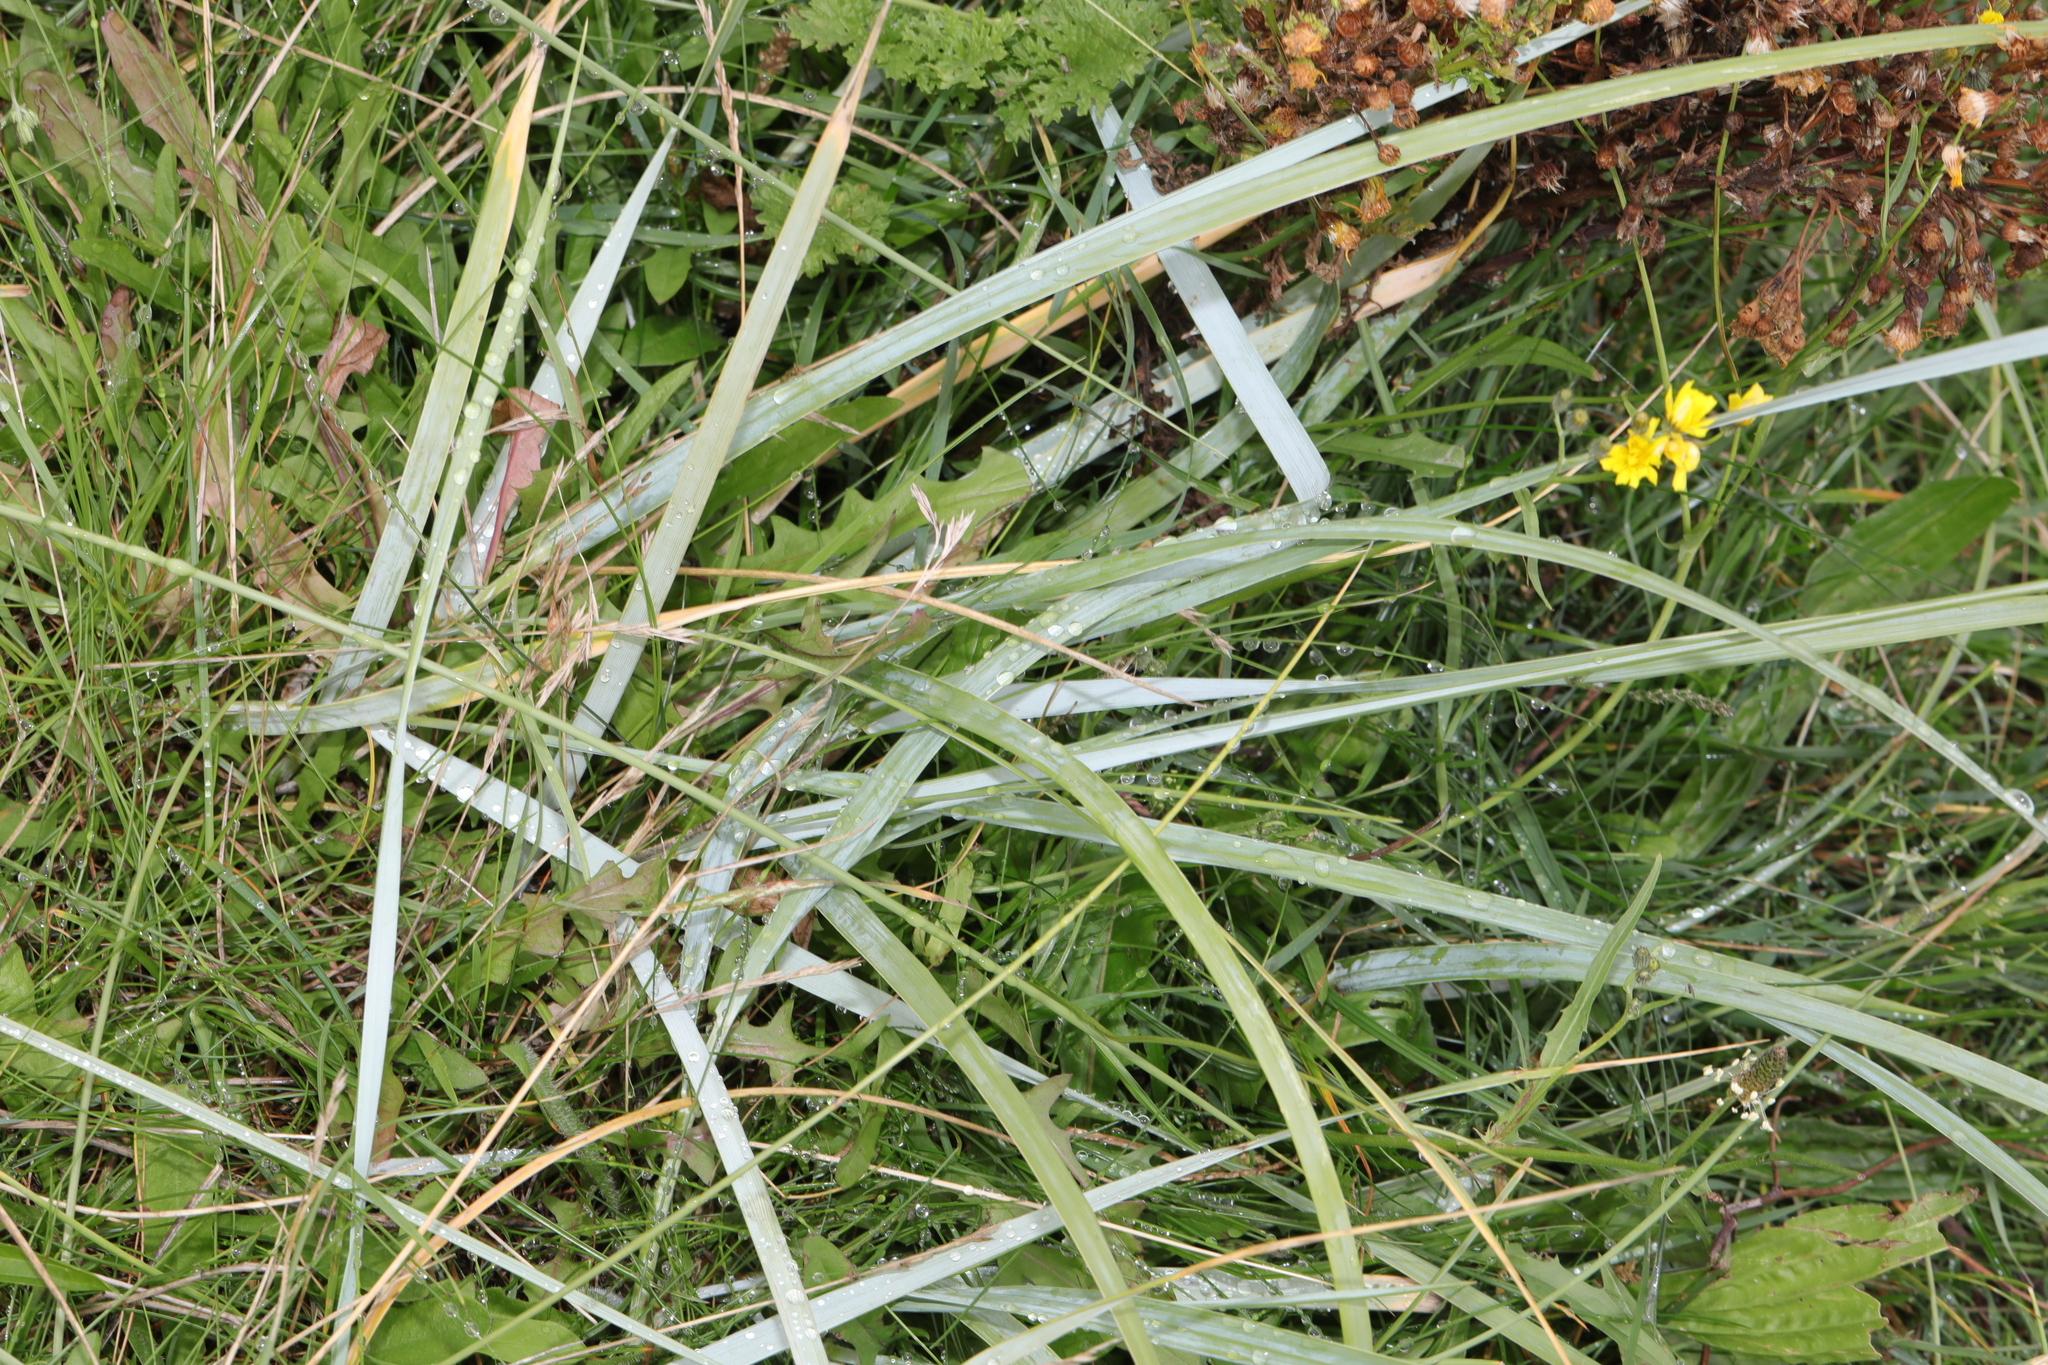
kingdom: Plantae
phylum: Tracheophyta
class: Liliopsida
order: Poales
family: Poaceae
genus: Leymus
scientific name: Leymus arenarius
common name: Lyme-grass
